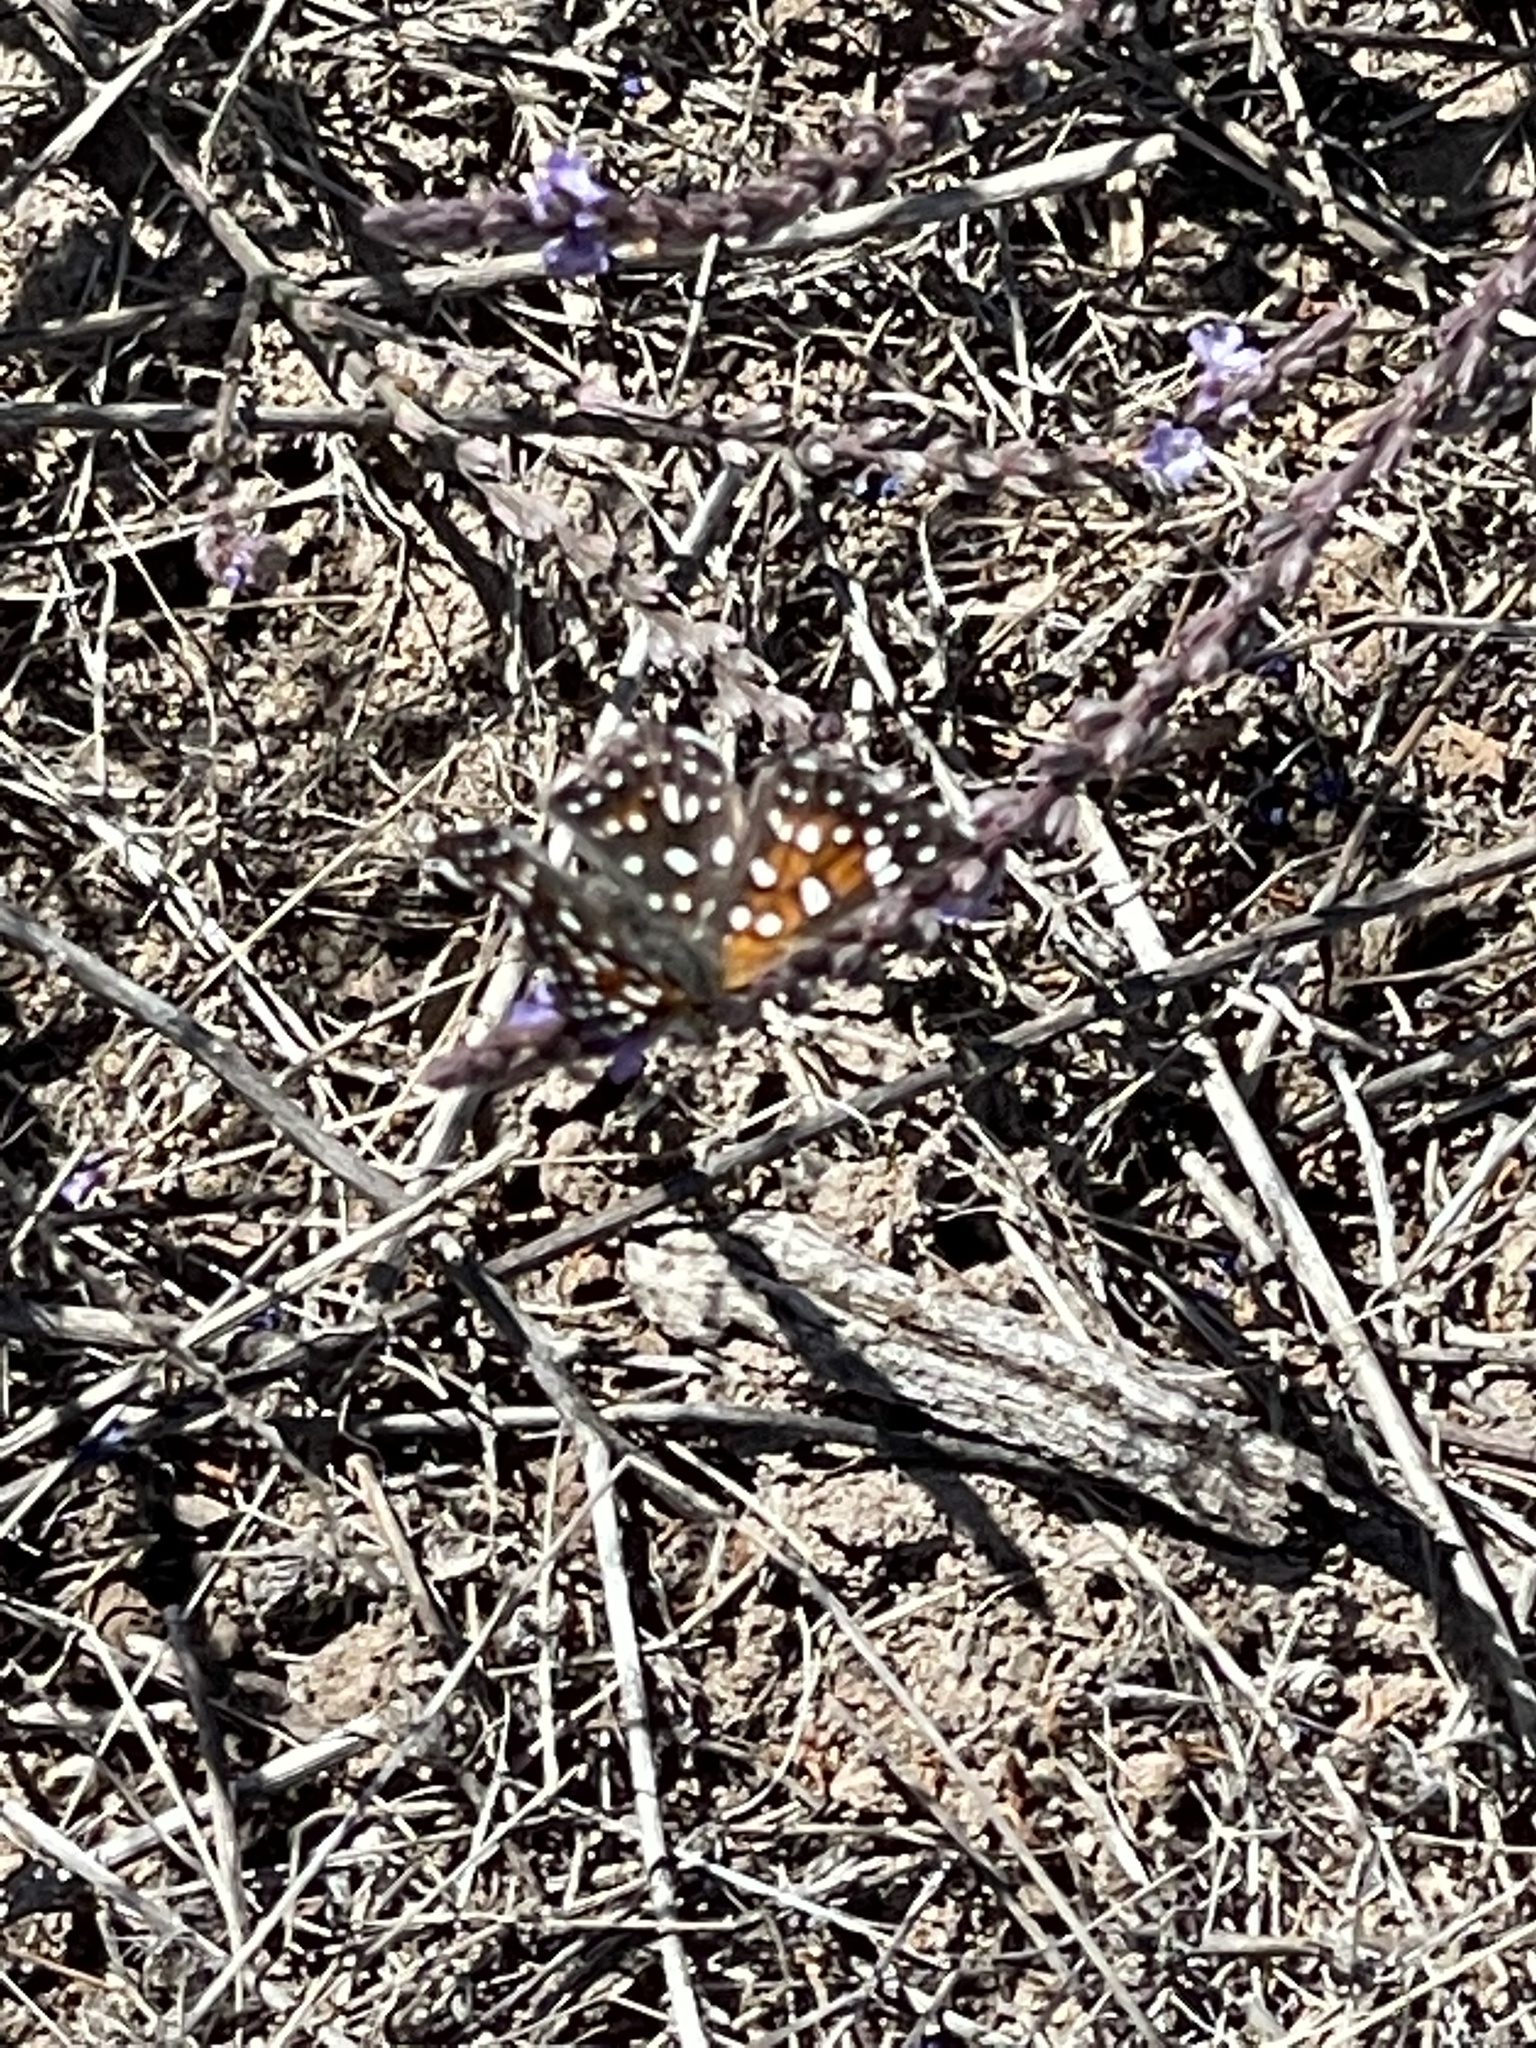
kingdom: Animalia
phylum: Arthropoda
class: Insecta
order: Lepidoptera
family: Riodinidae
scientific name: Riodinidae
